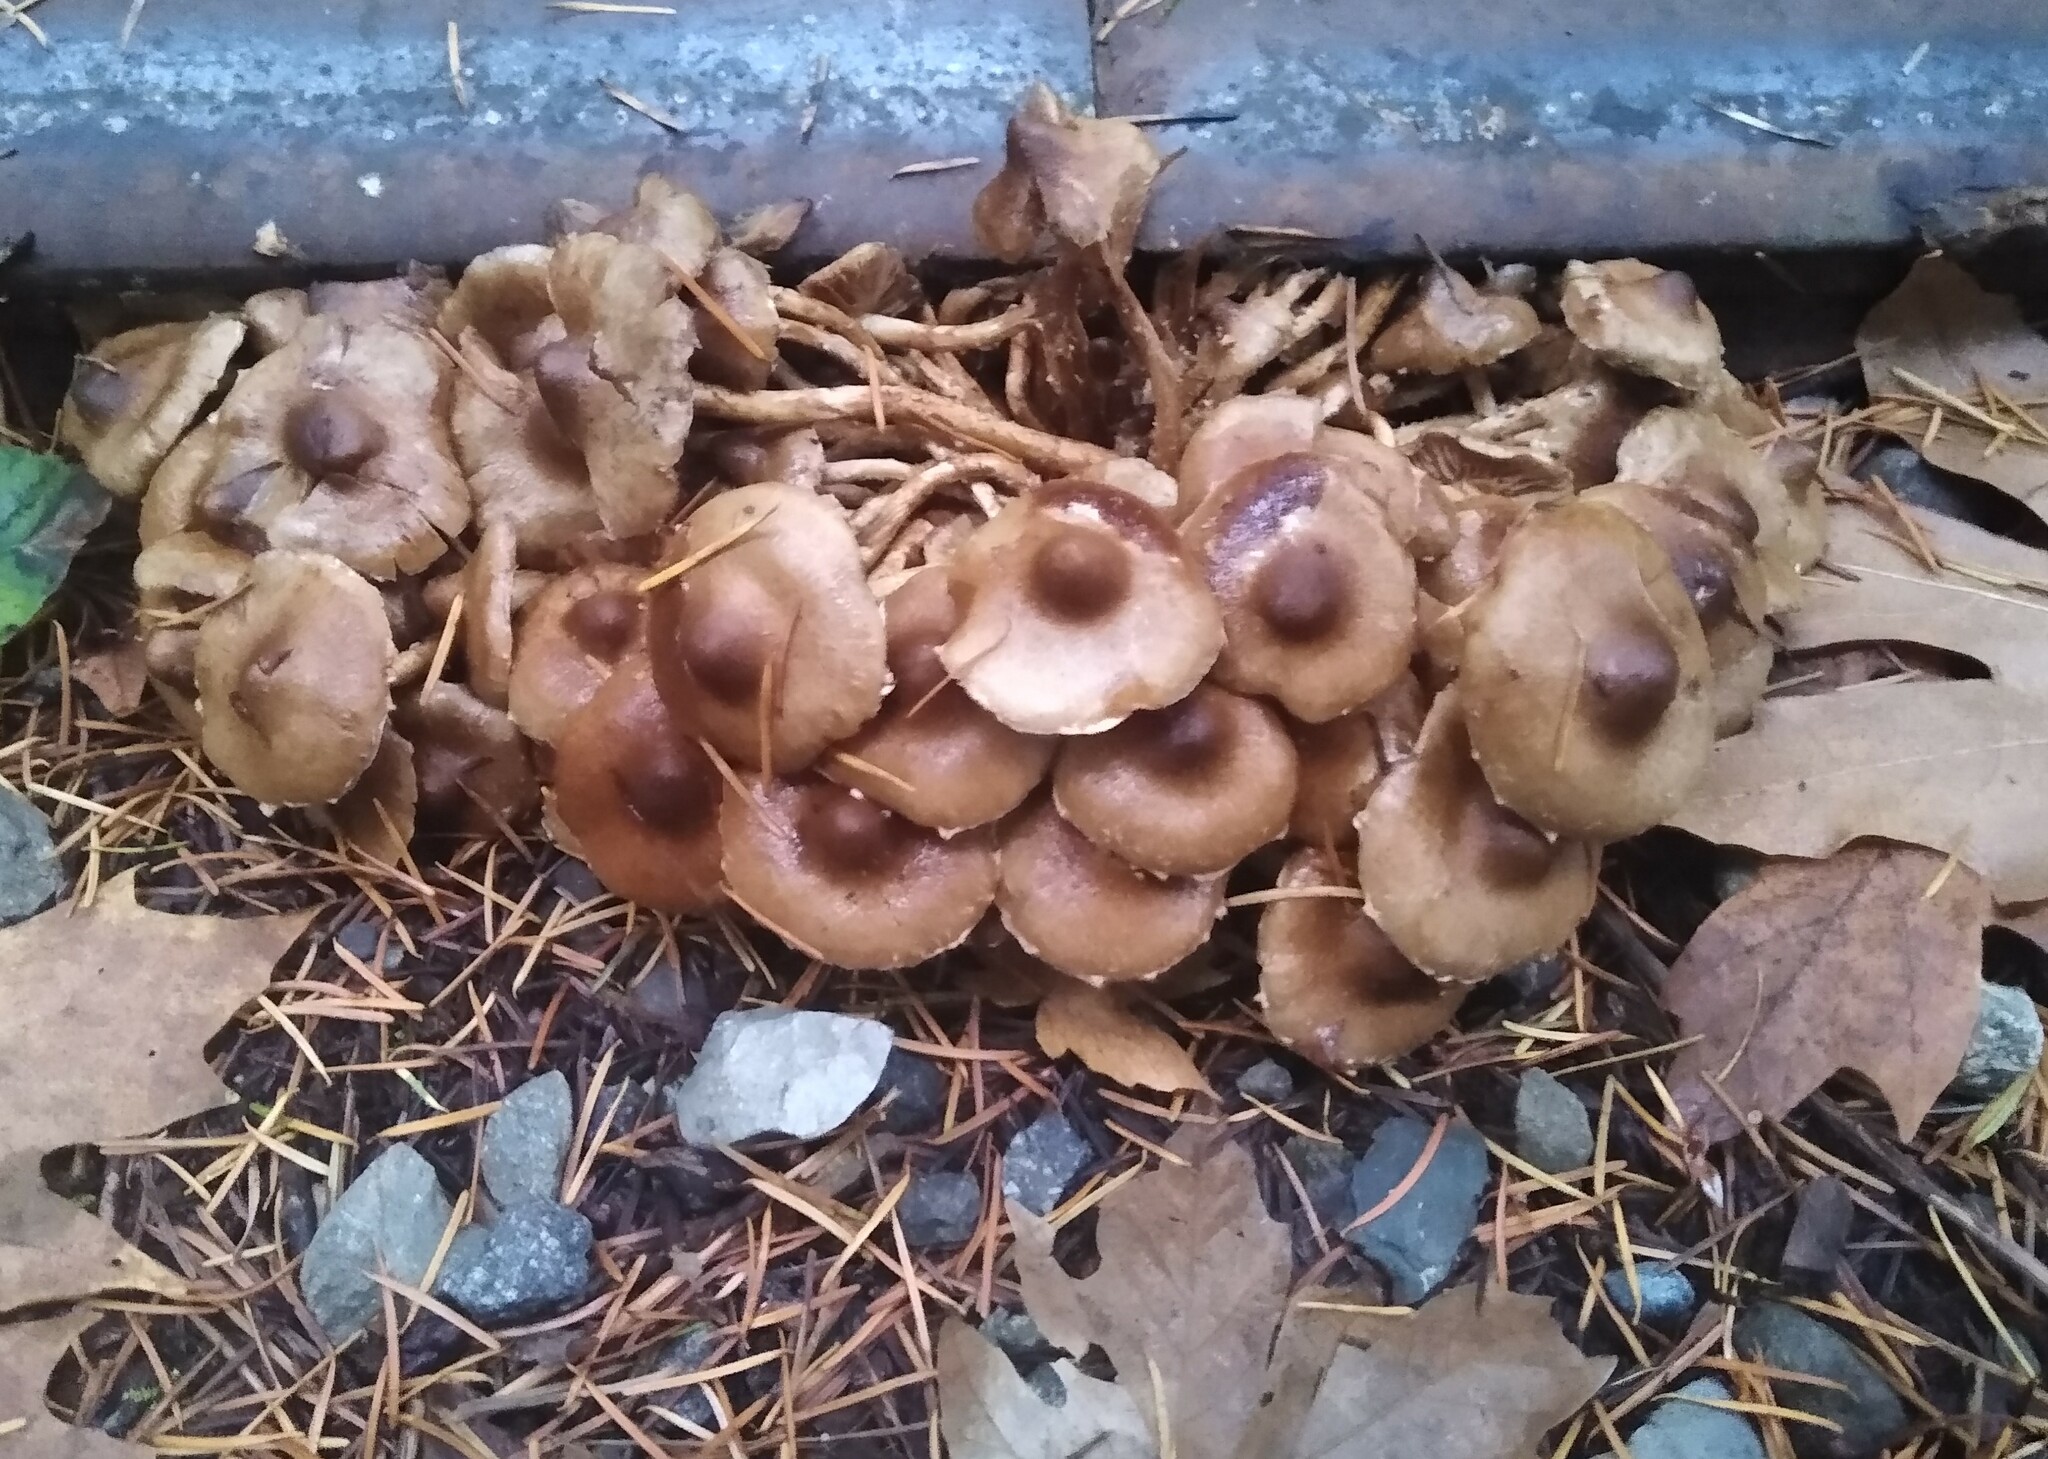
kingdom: Fungi
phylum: Basidiomycota
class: Agaricomycetes
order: Agaricales
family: Strophariaceae
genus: Pholiota
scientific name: Pholiota terrestris
